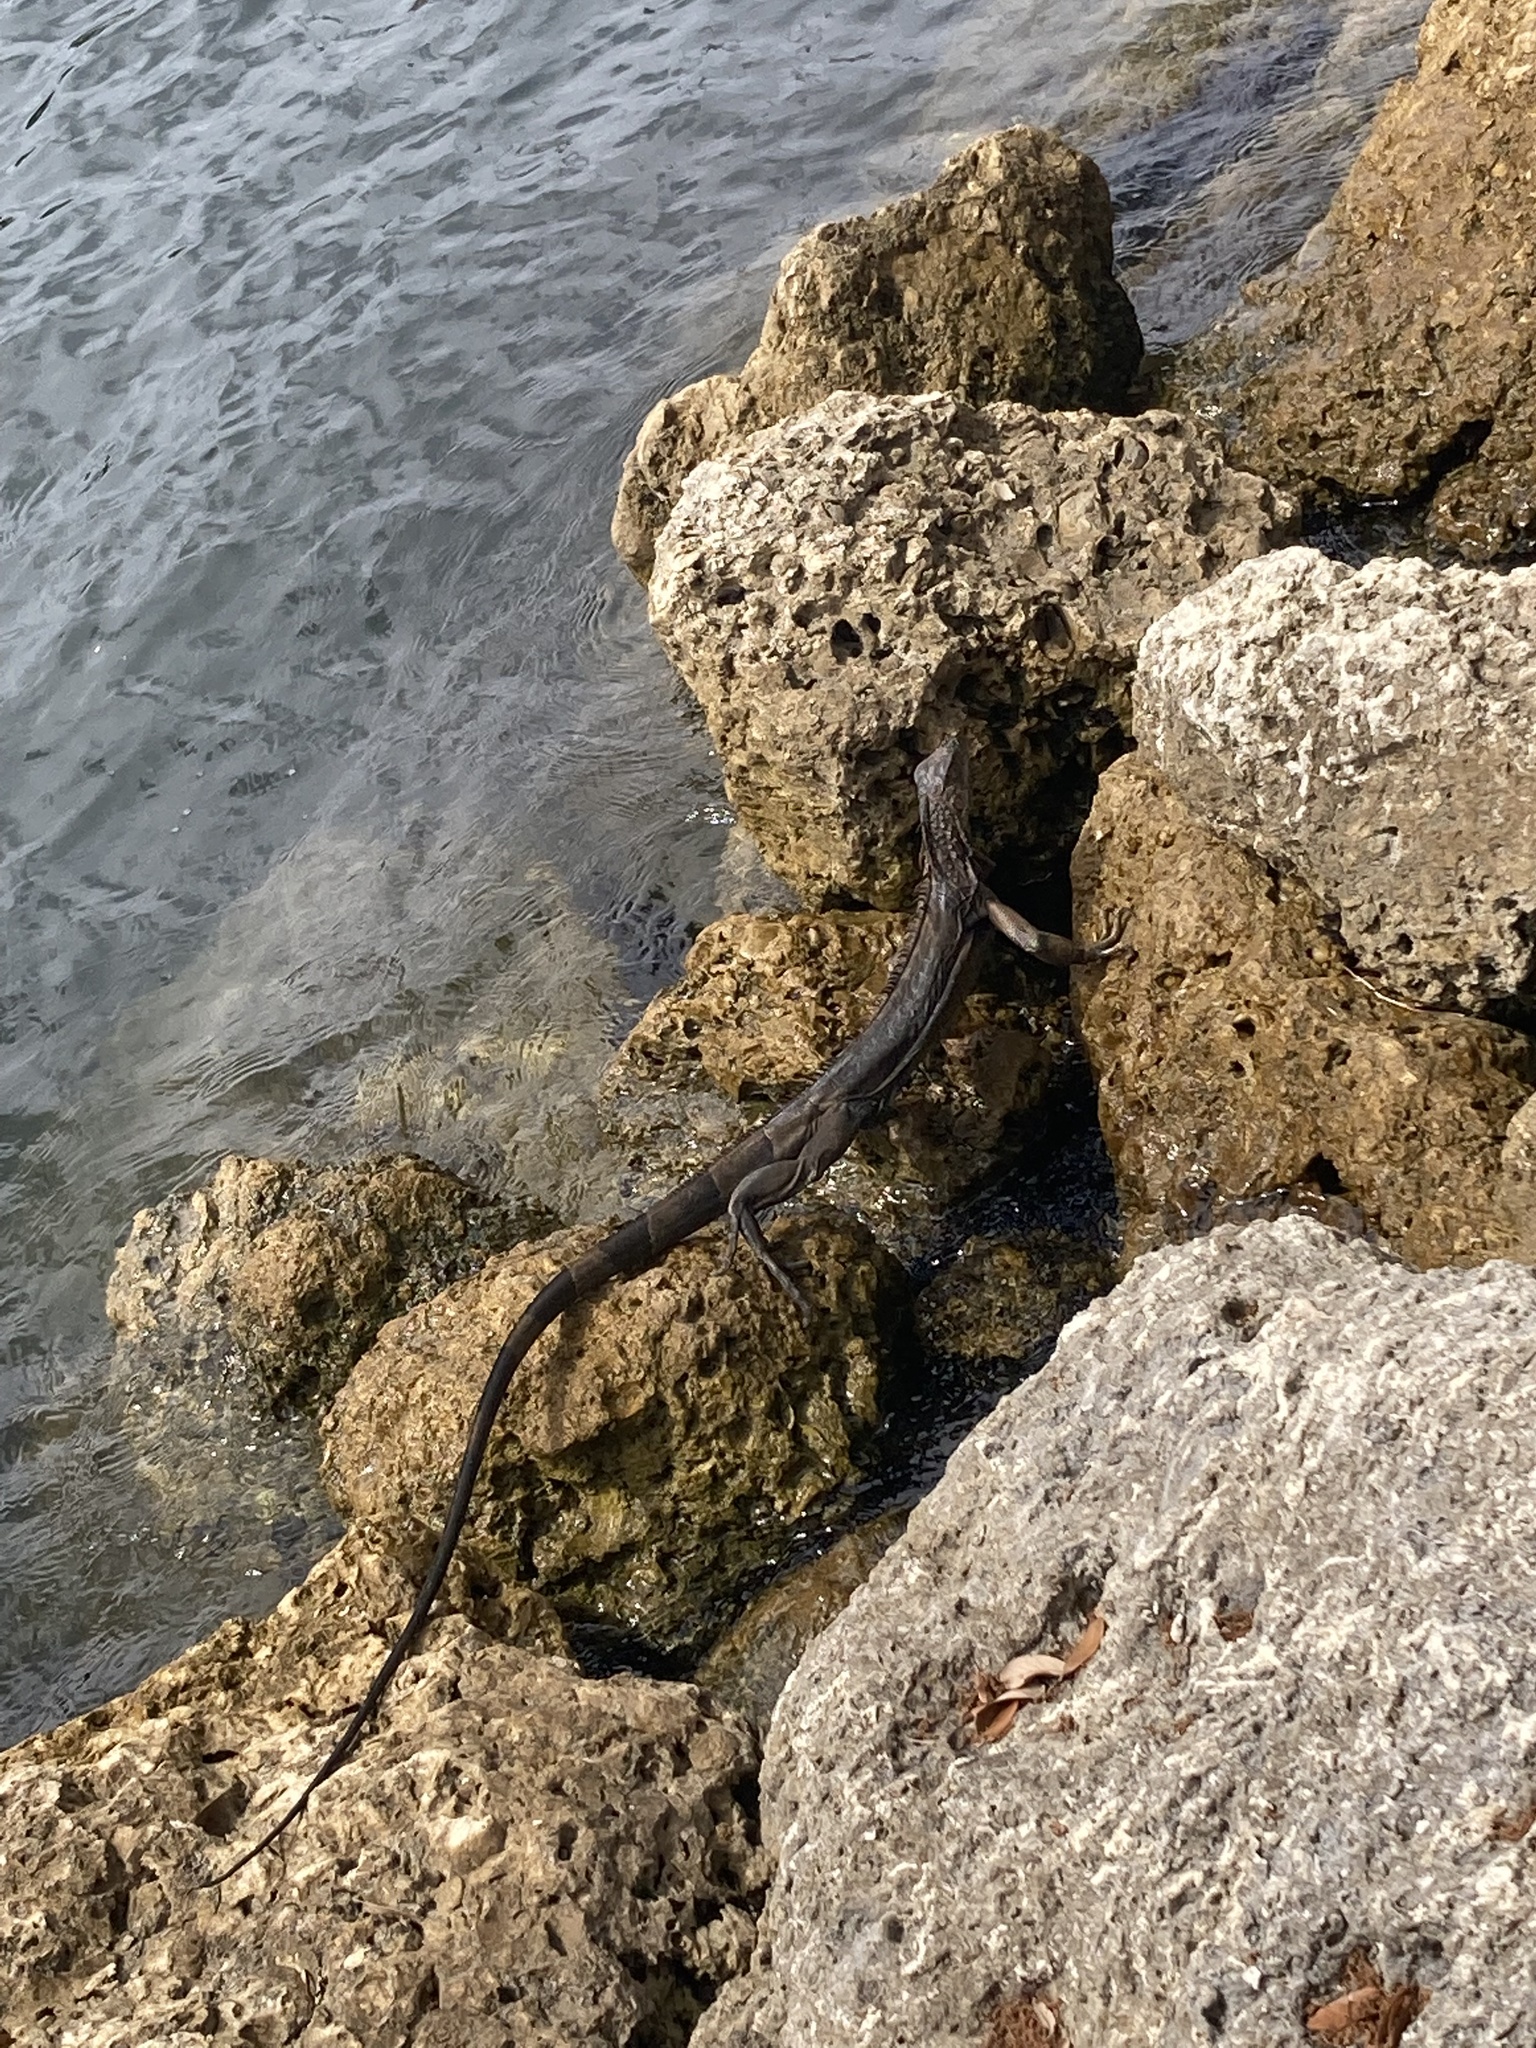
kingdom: Animalia
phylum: Chordata
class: Squamata
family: Iguanidae
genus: Iguana
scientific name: Iguana iguana
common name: Green iguana
